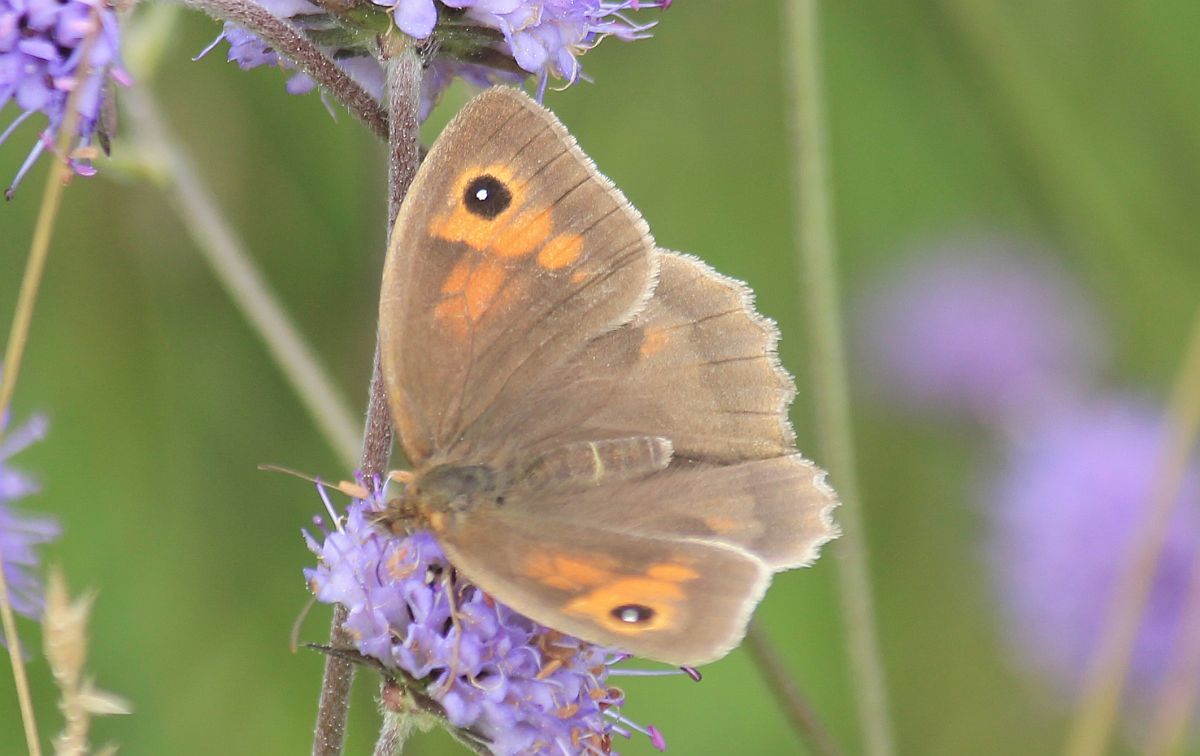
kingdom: Animalia
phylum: Arthropoda
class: Insecta
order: Lepidoptera
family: Nymphalidae
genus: Maniola
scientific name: Maniola jurtina
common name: Meadow brown
